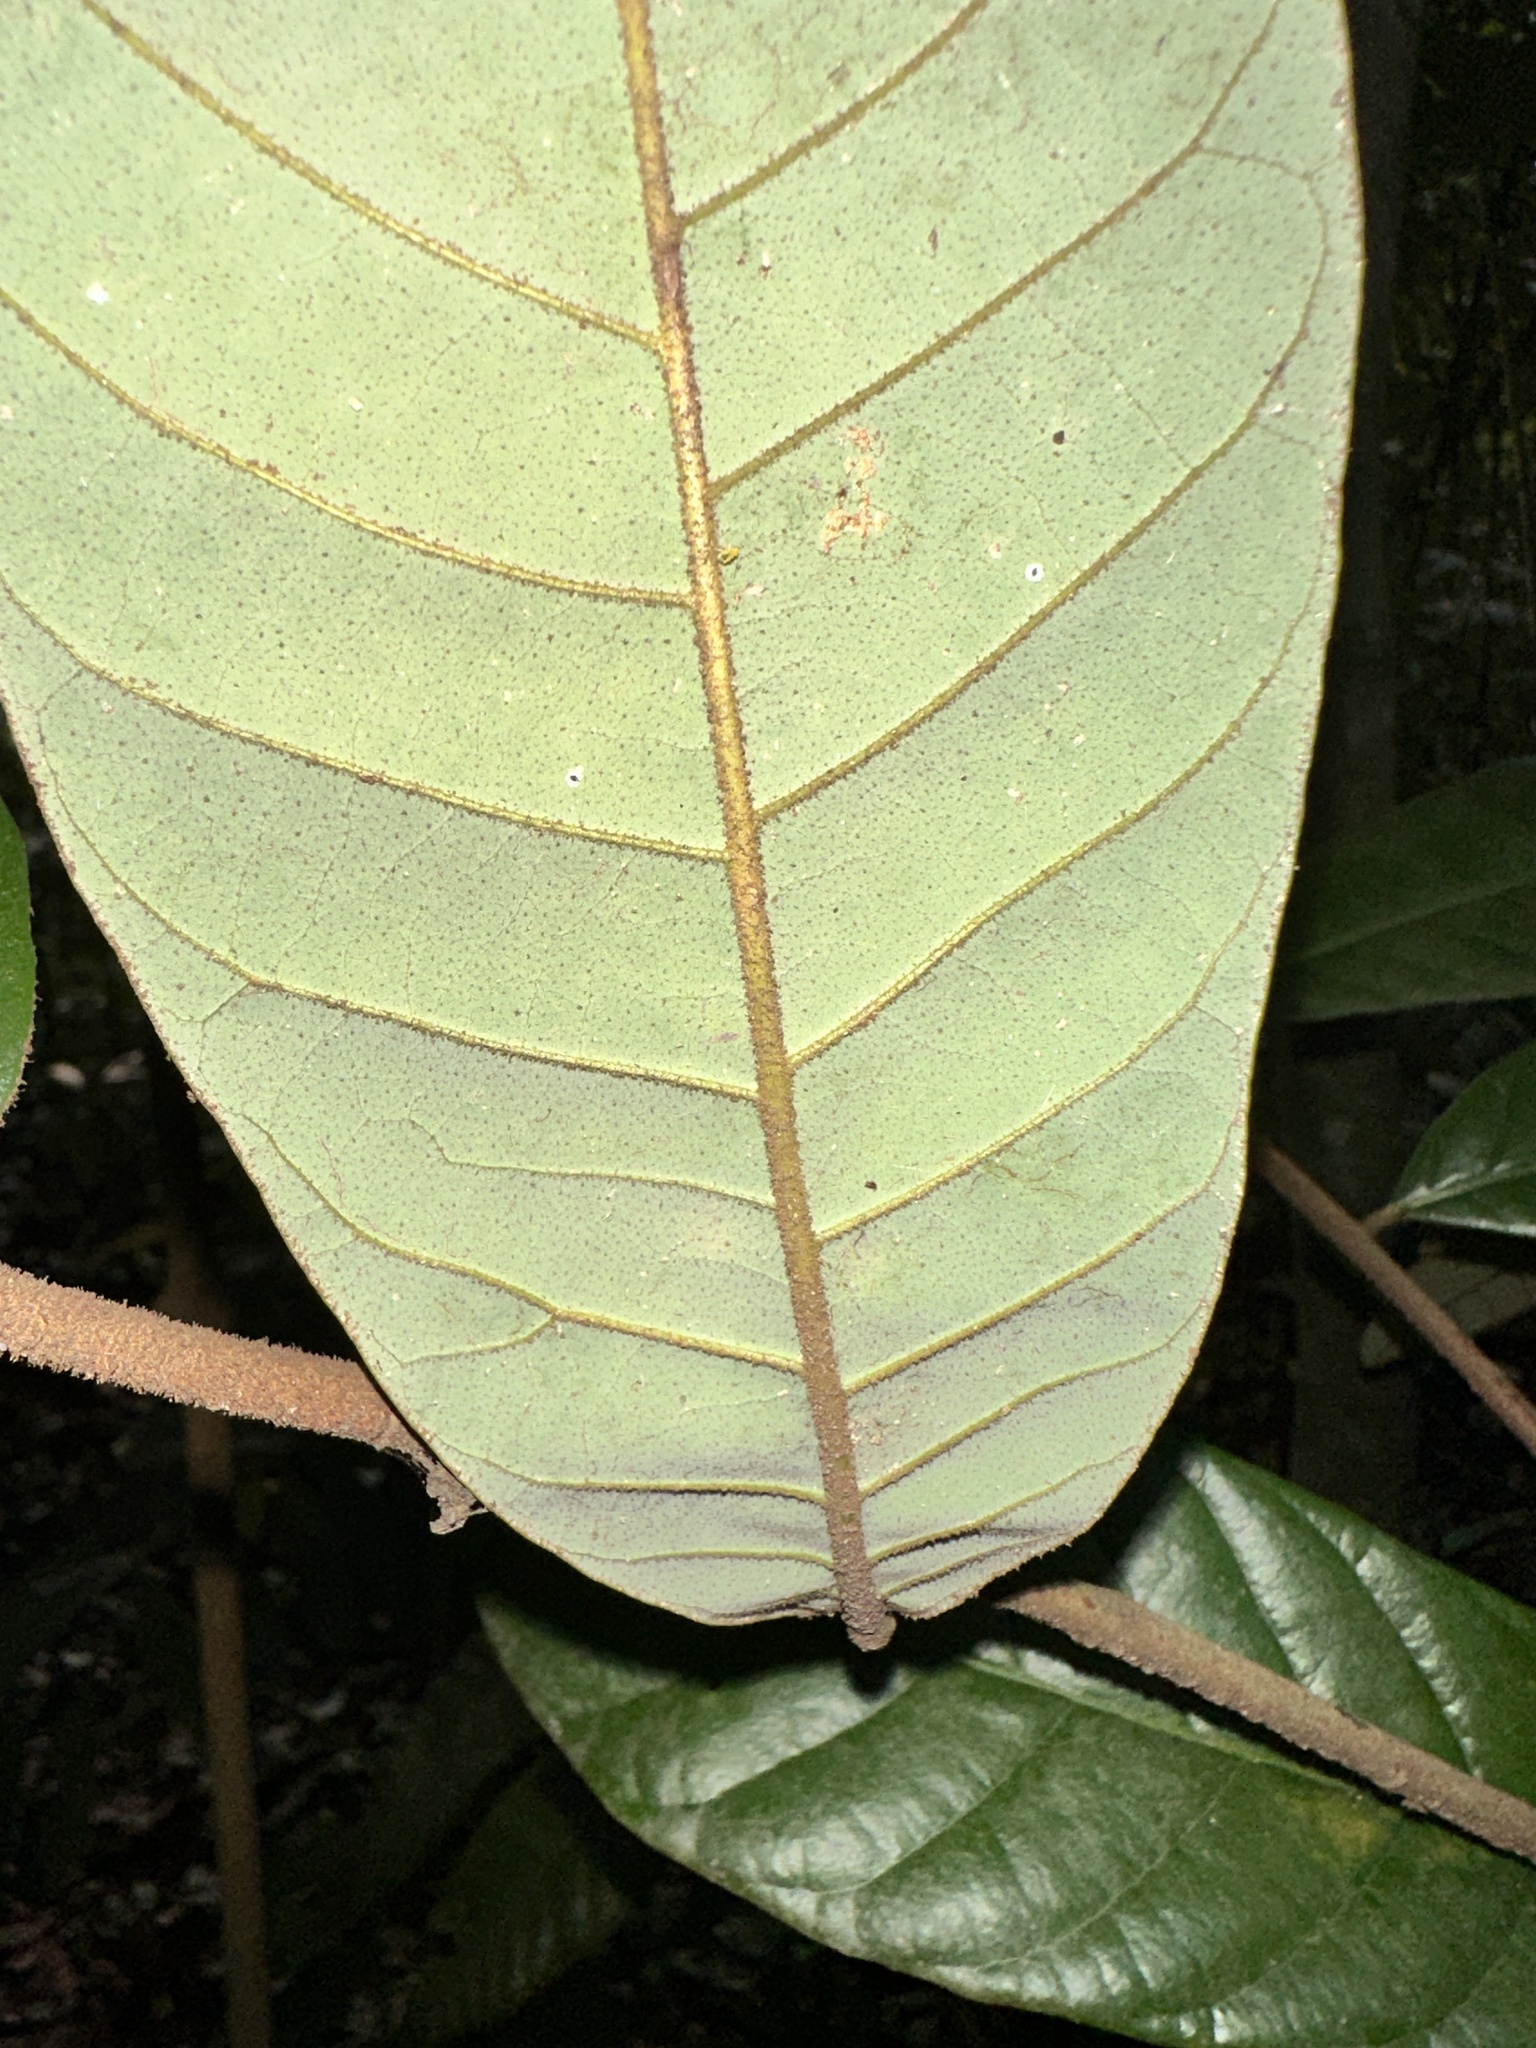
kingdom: Plantae
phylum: Tracheophyta
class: Magnoliopsida
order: Magnoliales
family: Myristicaceae
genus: Knema
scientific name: Knema laurina
